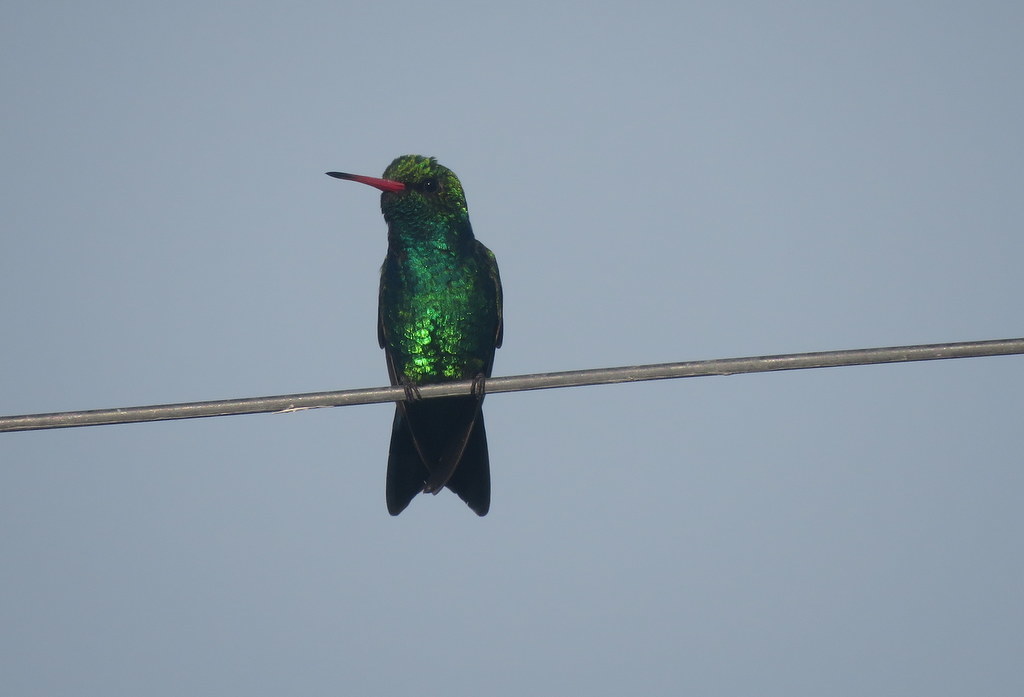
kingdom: Animalia
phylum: Chordata
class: Aves
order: Apodiformes
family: Trochilidae
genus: Chlorostilbon
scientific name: Chlorostilbon lucidus
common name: Glittering-bellied emerald
